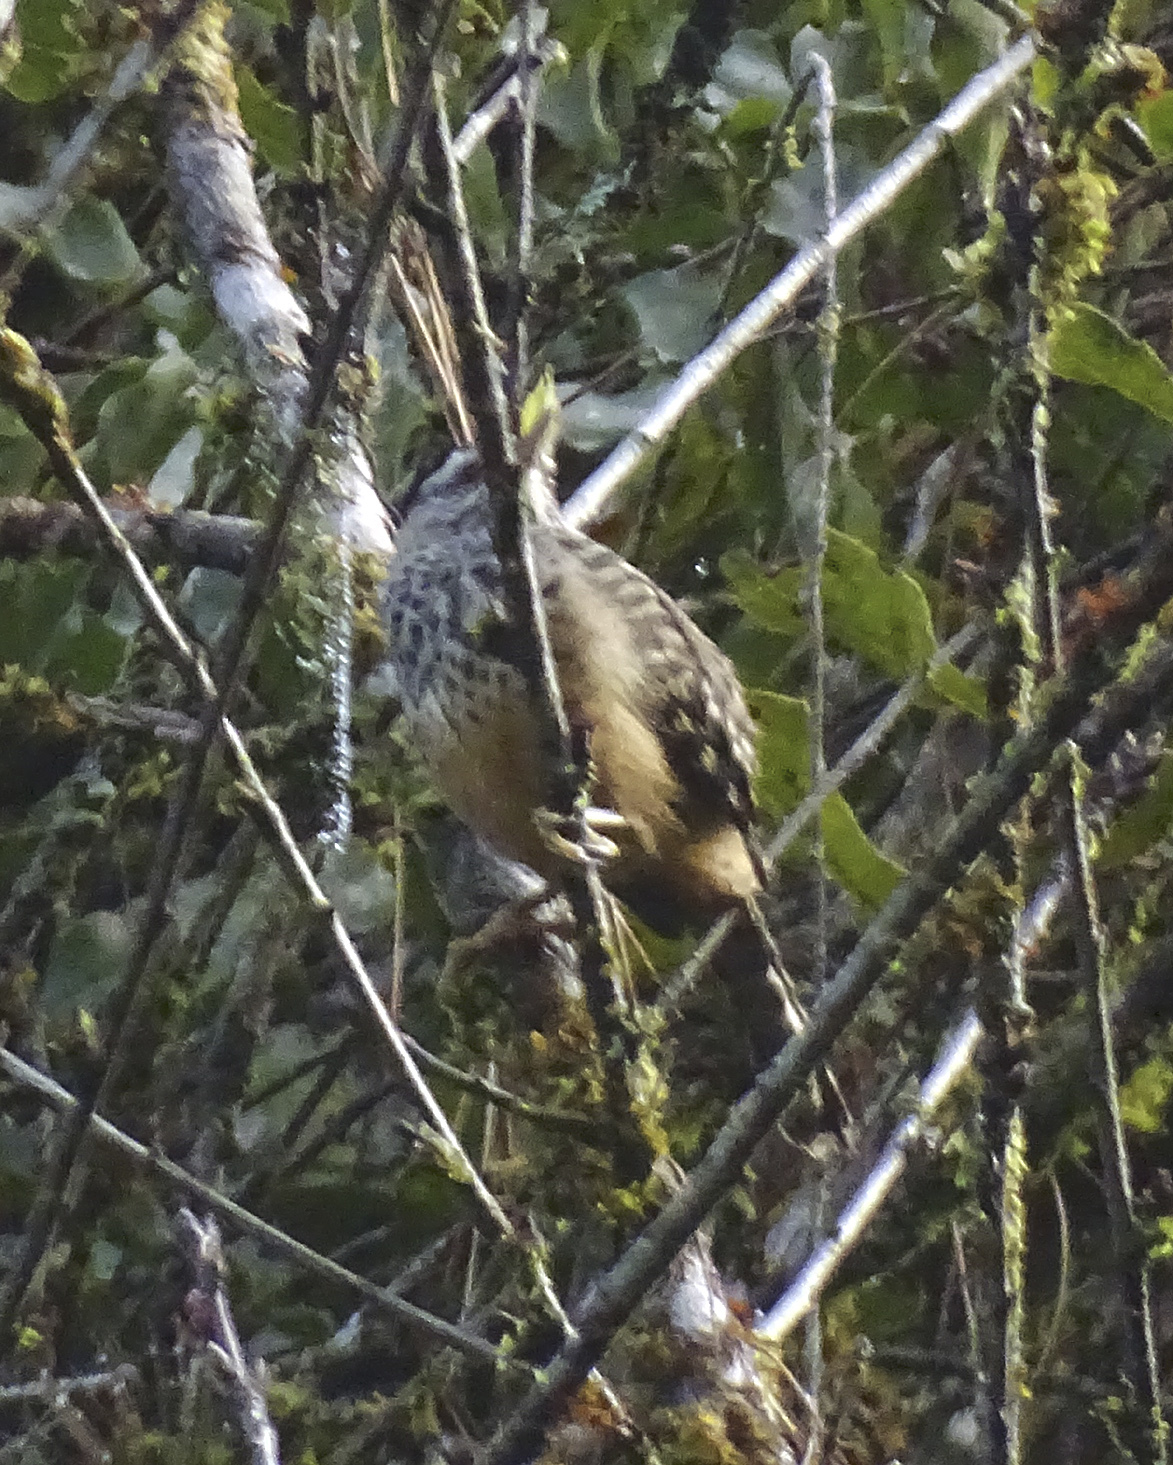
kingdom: Animalia
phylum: Chordata
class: Aves
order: Passeriformes
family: Troglodytidae
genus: Campylorhynchus
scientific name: Campylorhynchus zonatus
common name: Band-backed wren
